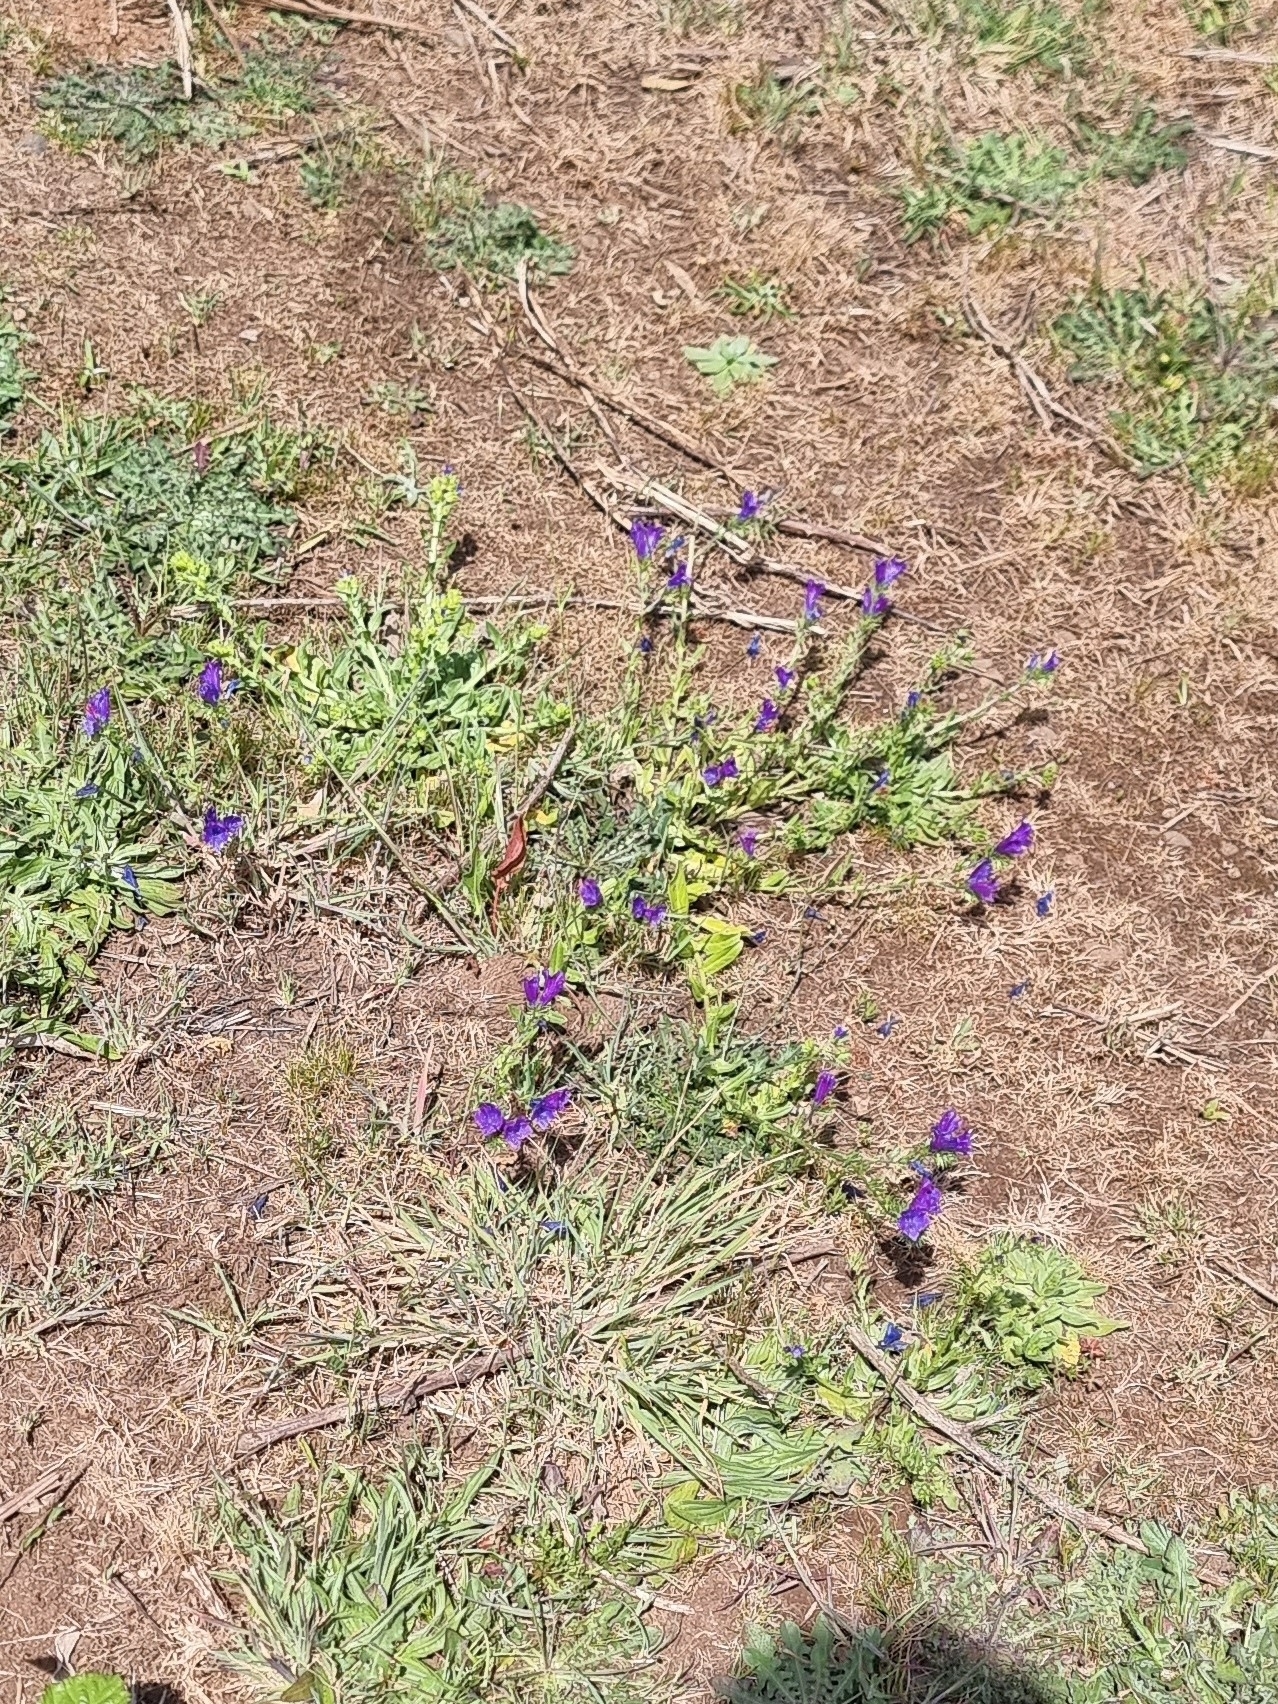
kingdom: Plantae
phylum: Tracheophyta
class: Magnoliopsida
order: Boraginales
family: Boraginaceae
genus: Echium
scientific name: Echium plantagineum
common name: Purple viper's-bugloss
